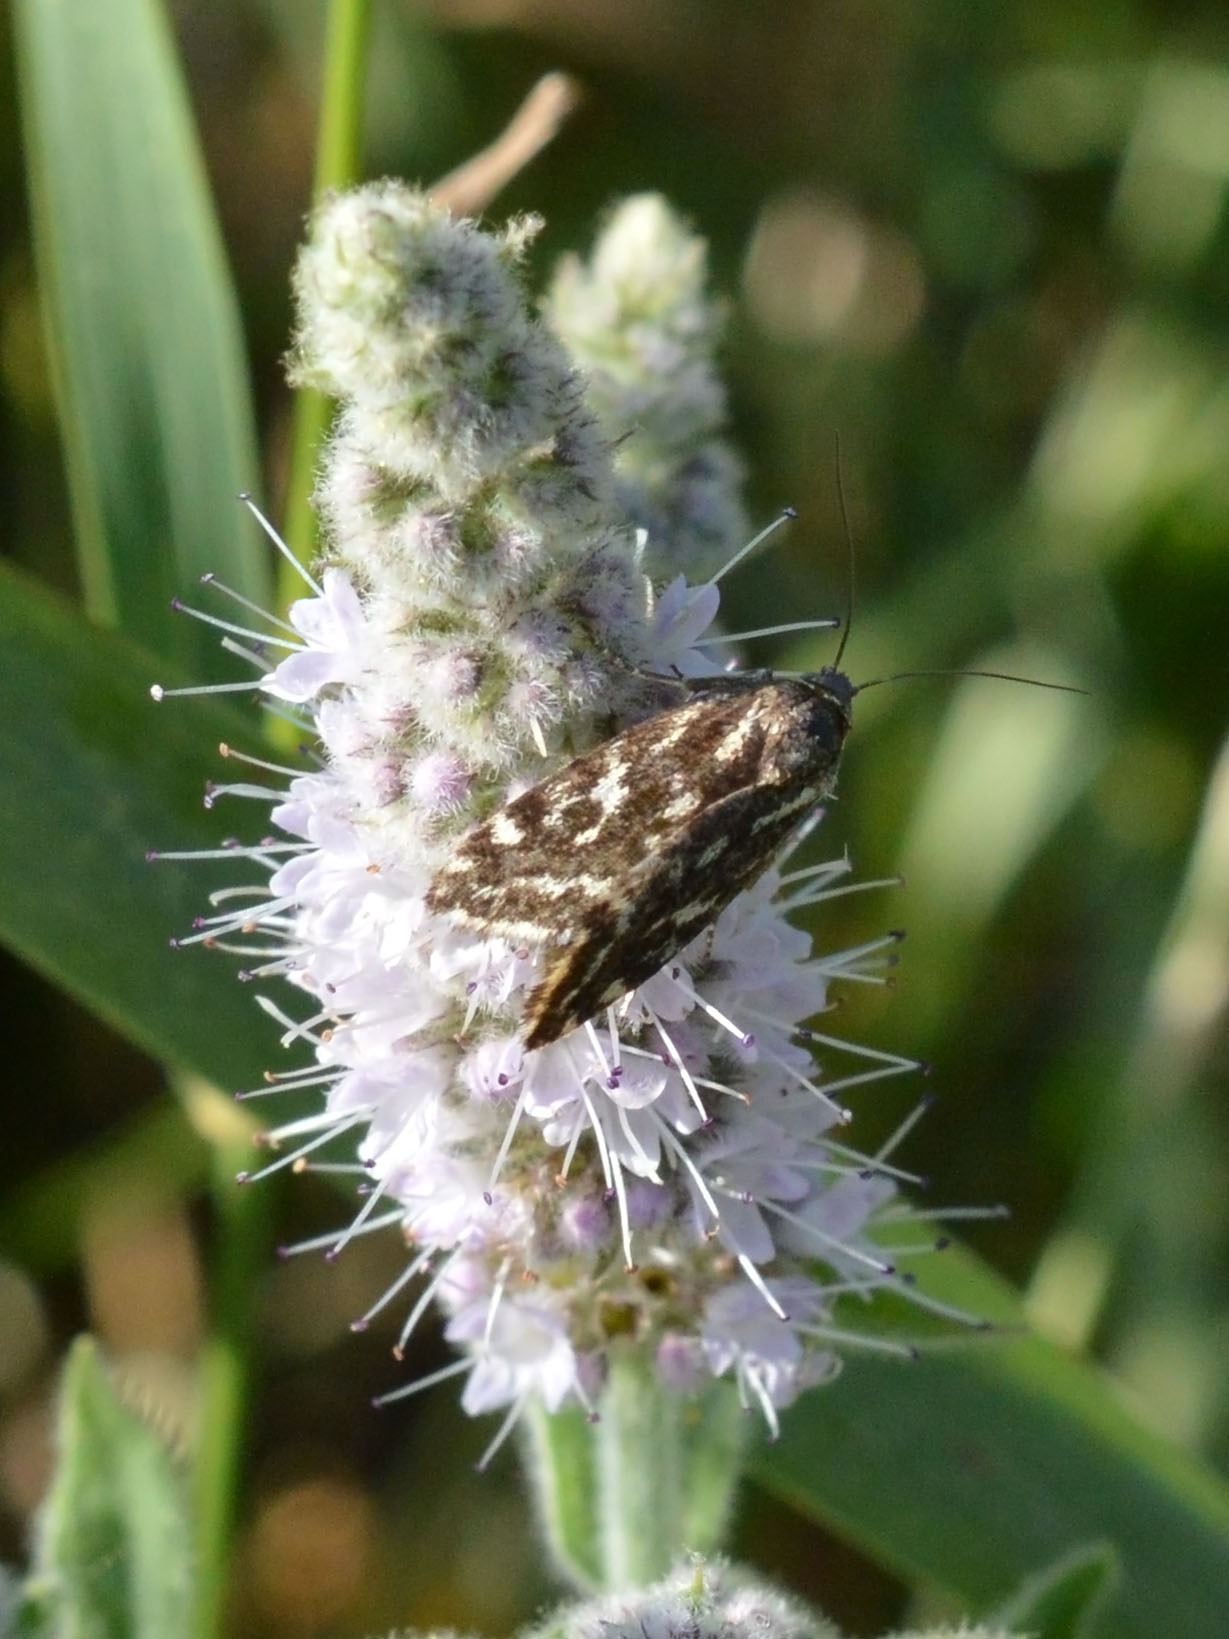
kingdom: Animalia
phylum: Arthropoda
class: Insecta
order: Lepidoptera
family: Noctuidae
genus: Acontia
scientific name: Acontia trabealis
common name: Spotted sulphur
